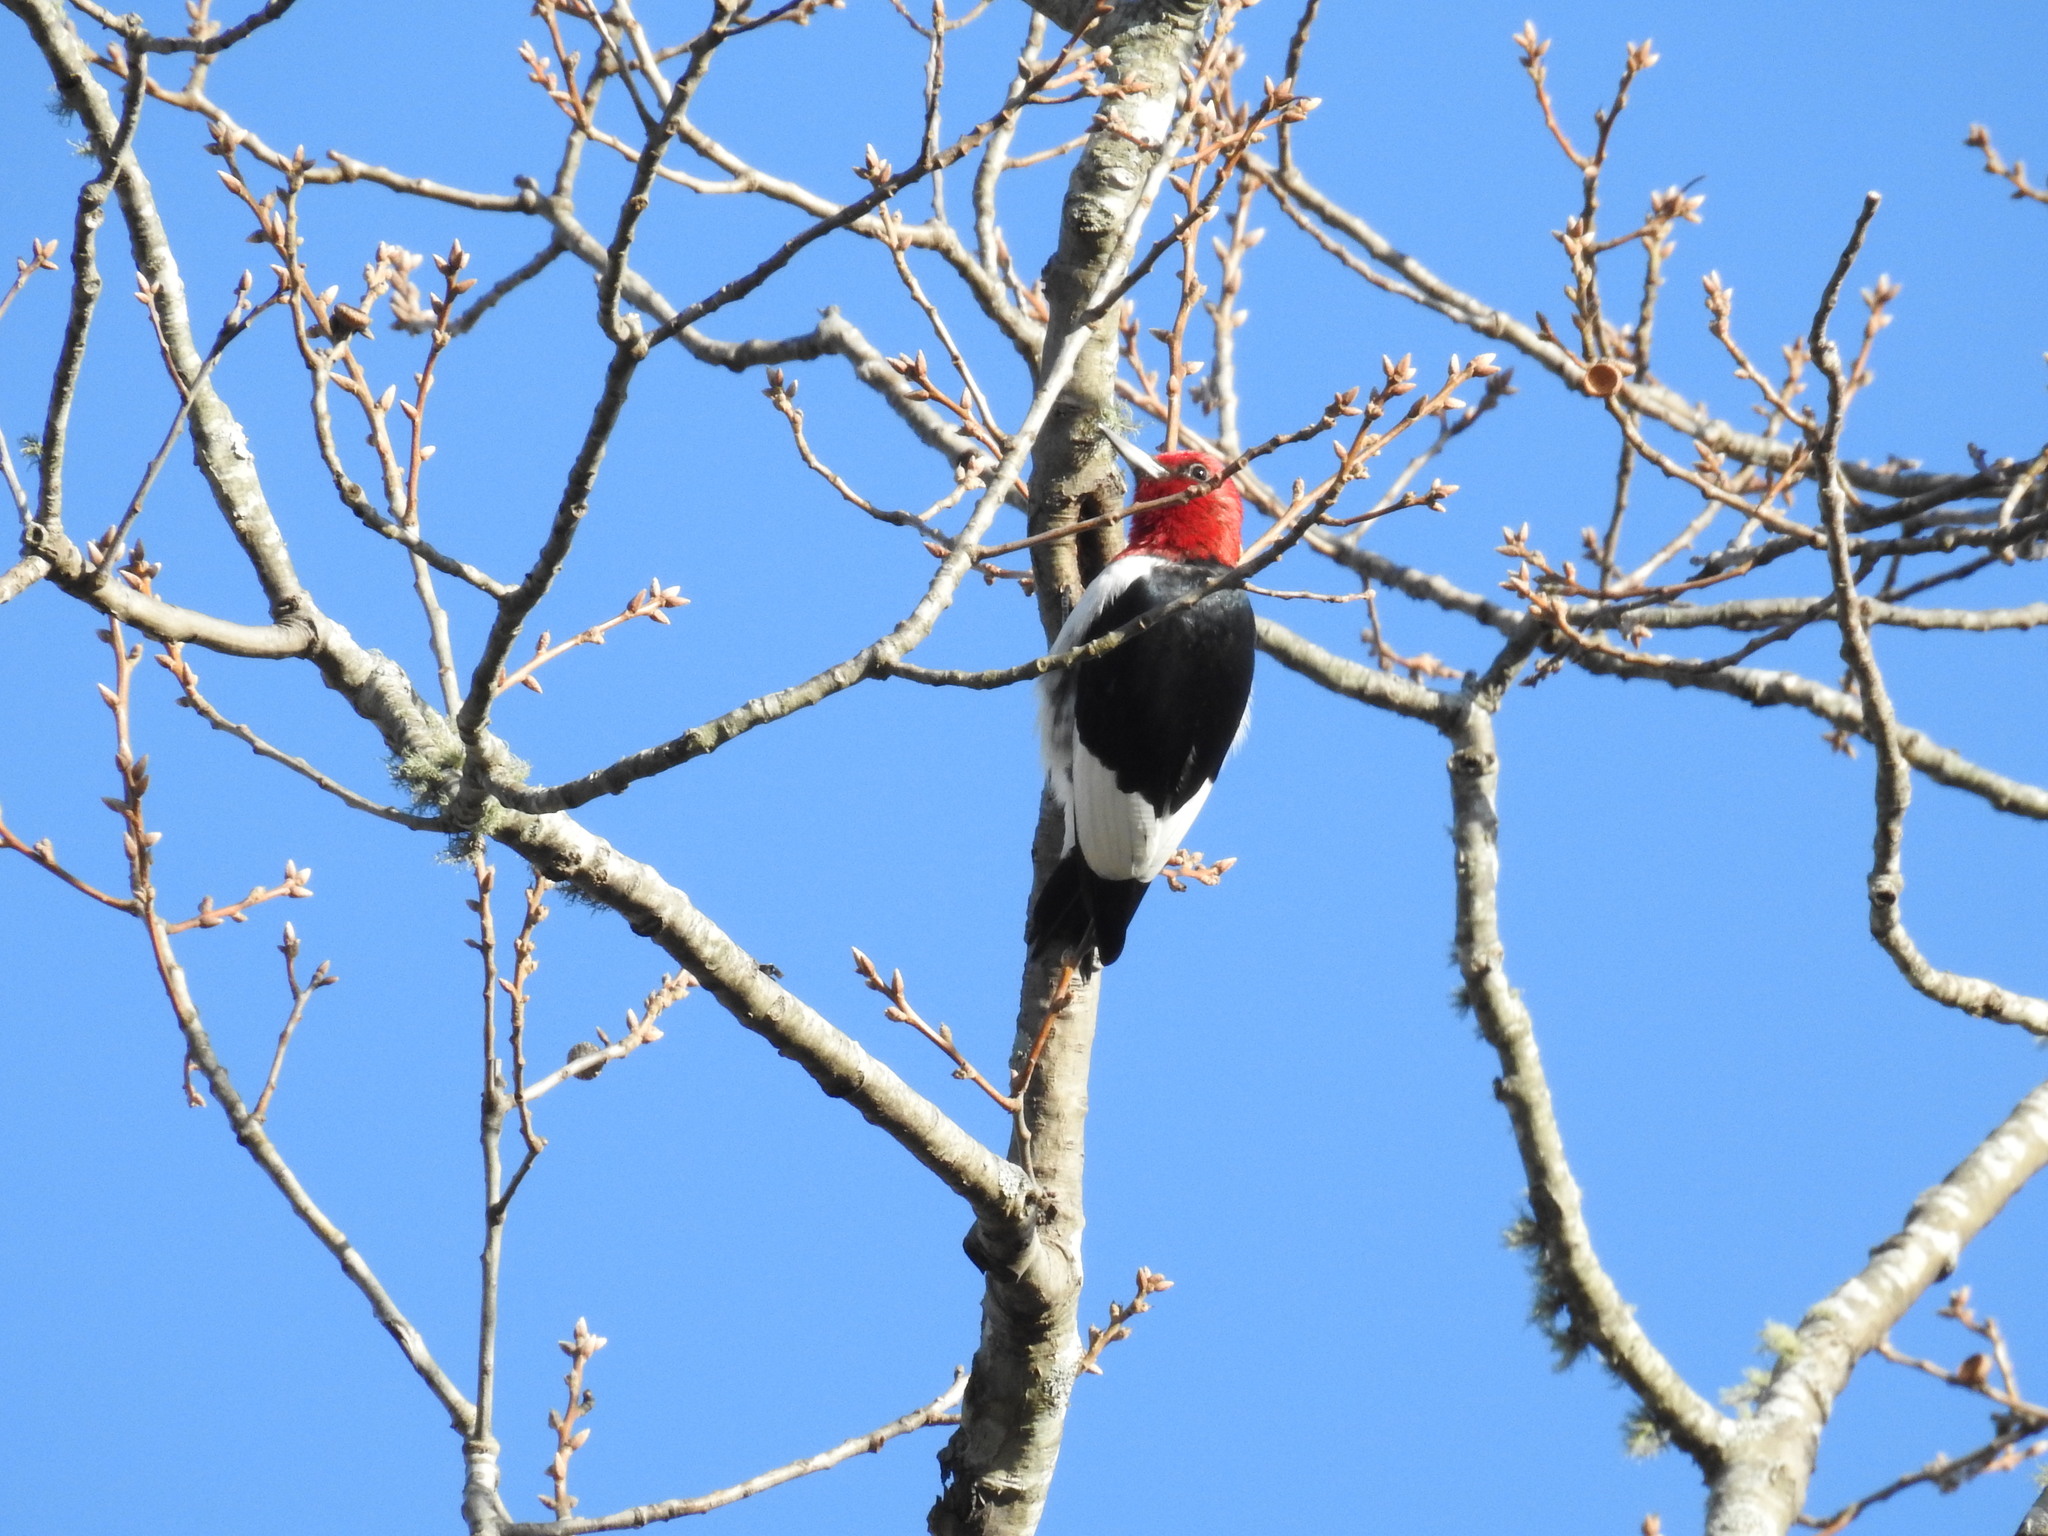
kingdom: Animalia
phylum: Chordata
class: Aves
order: Piciformes
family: Picidae
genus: Melanerpes
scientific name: Melanerpes erythrocephalus
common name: Red-headed woodpecker
